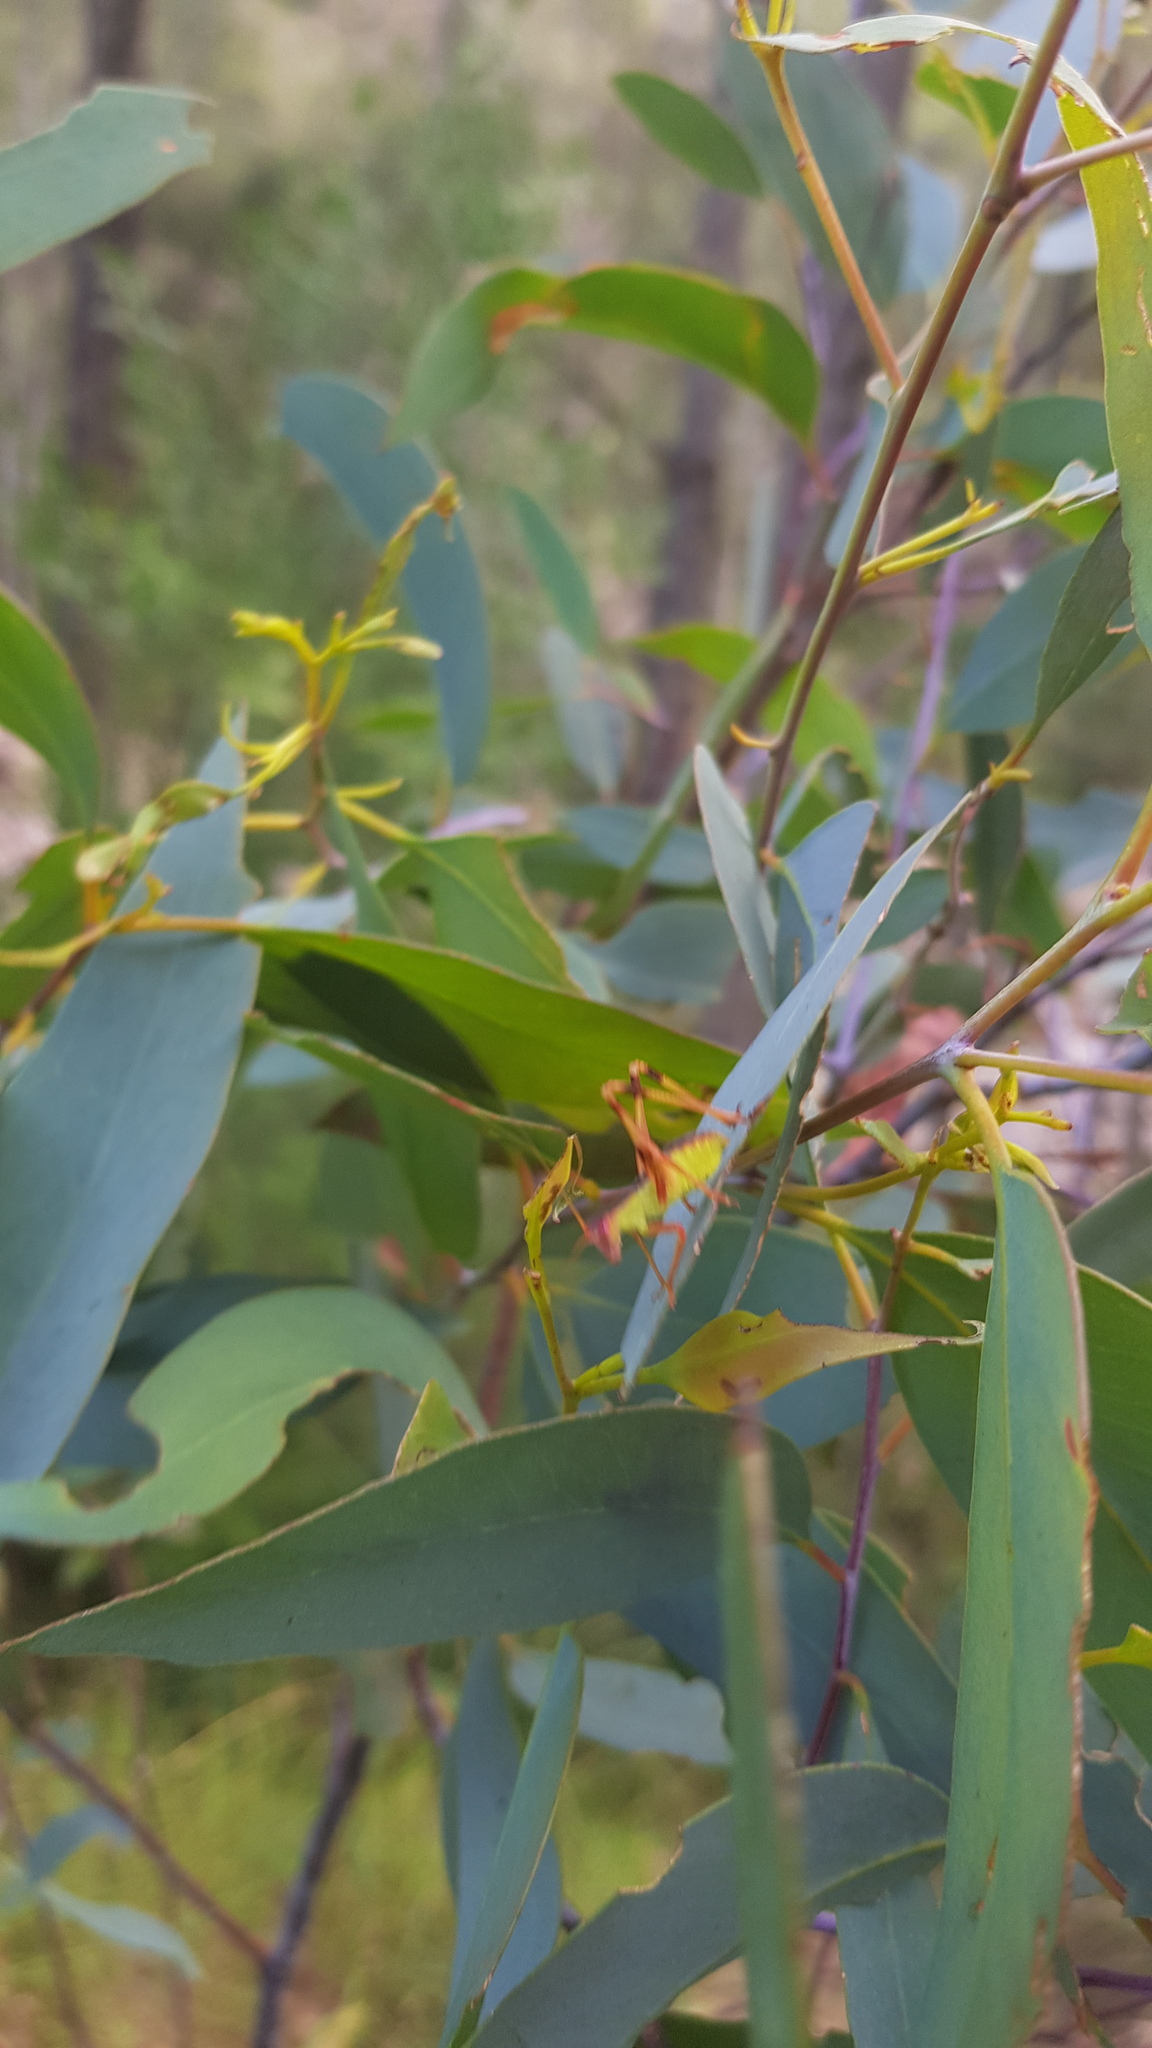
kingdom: Animalia
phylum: Arthropoda
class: Insecta
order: Orthoptera
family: Tettigoniidae
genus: Torbia
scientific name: Torbia perficita
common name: Giant torbia
